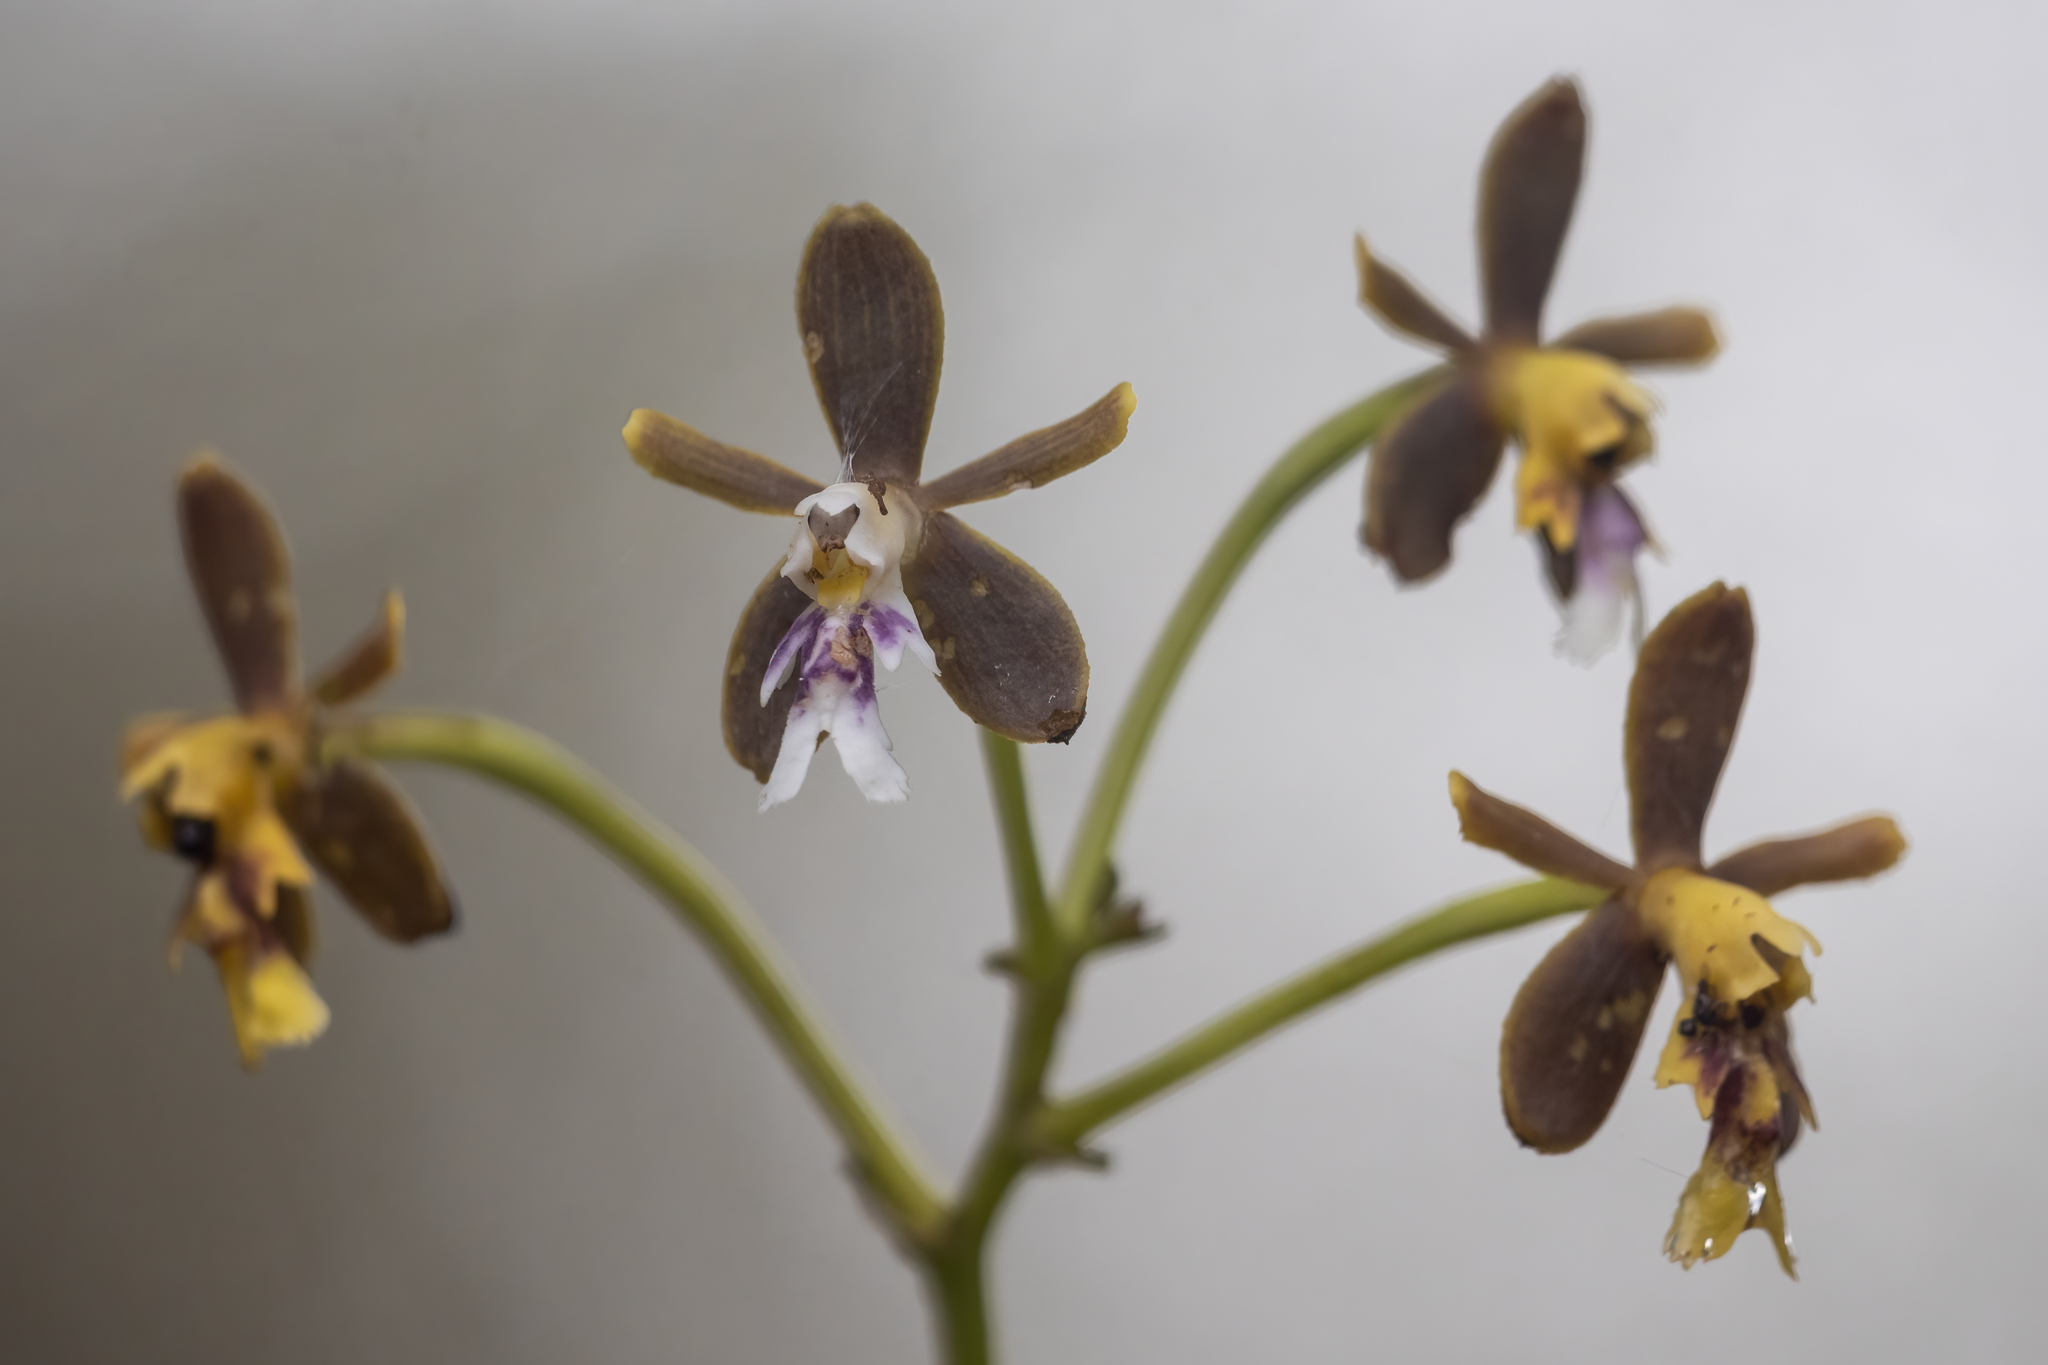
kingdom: Plantae
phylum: Tracheophyta
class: Liliopsida
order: Asparagales
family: Orchidaceae
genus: Epidendrum
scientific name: Epidendrum exasperatum
